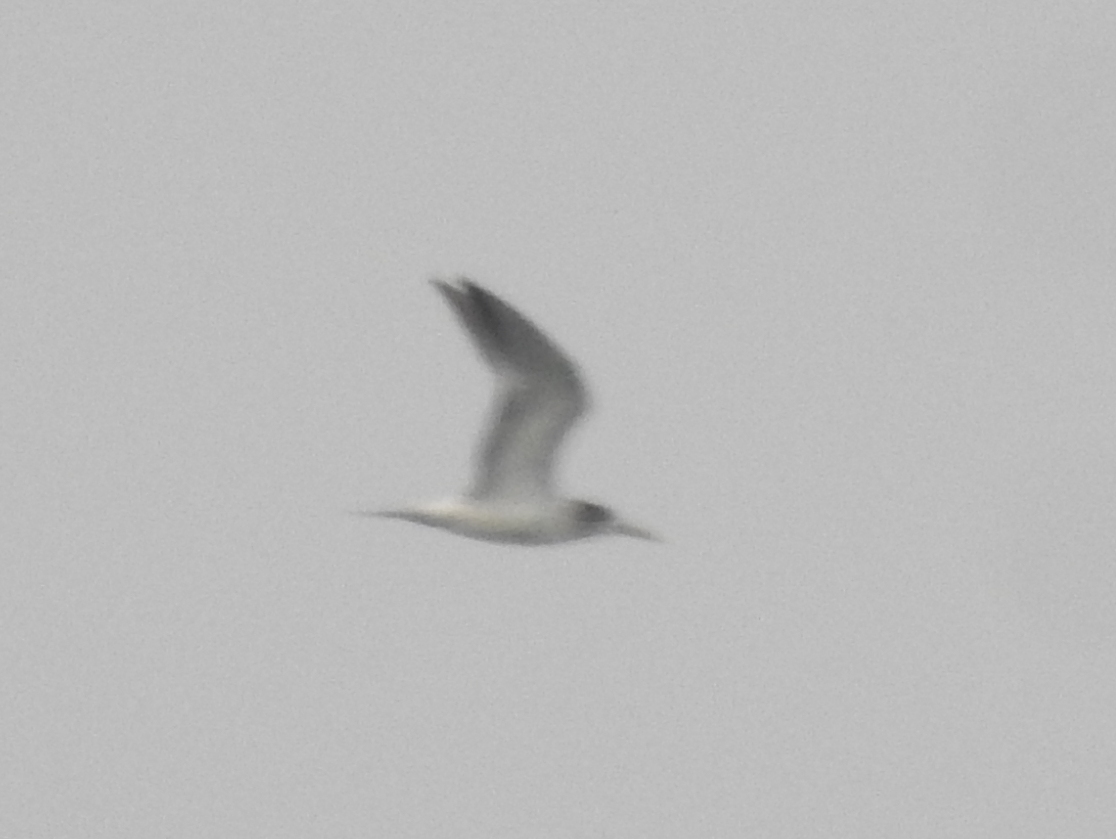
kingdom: Animalia
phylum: Chordata
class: Aves
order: Charadriiformes
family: Laridae
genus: Thalasseus
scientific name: Thalasseus bergii
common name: Greater crested tern
